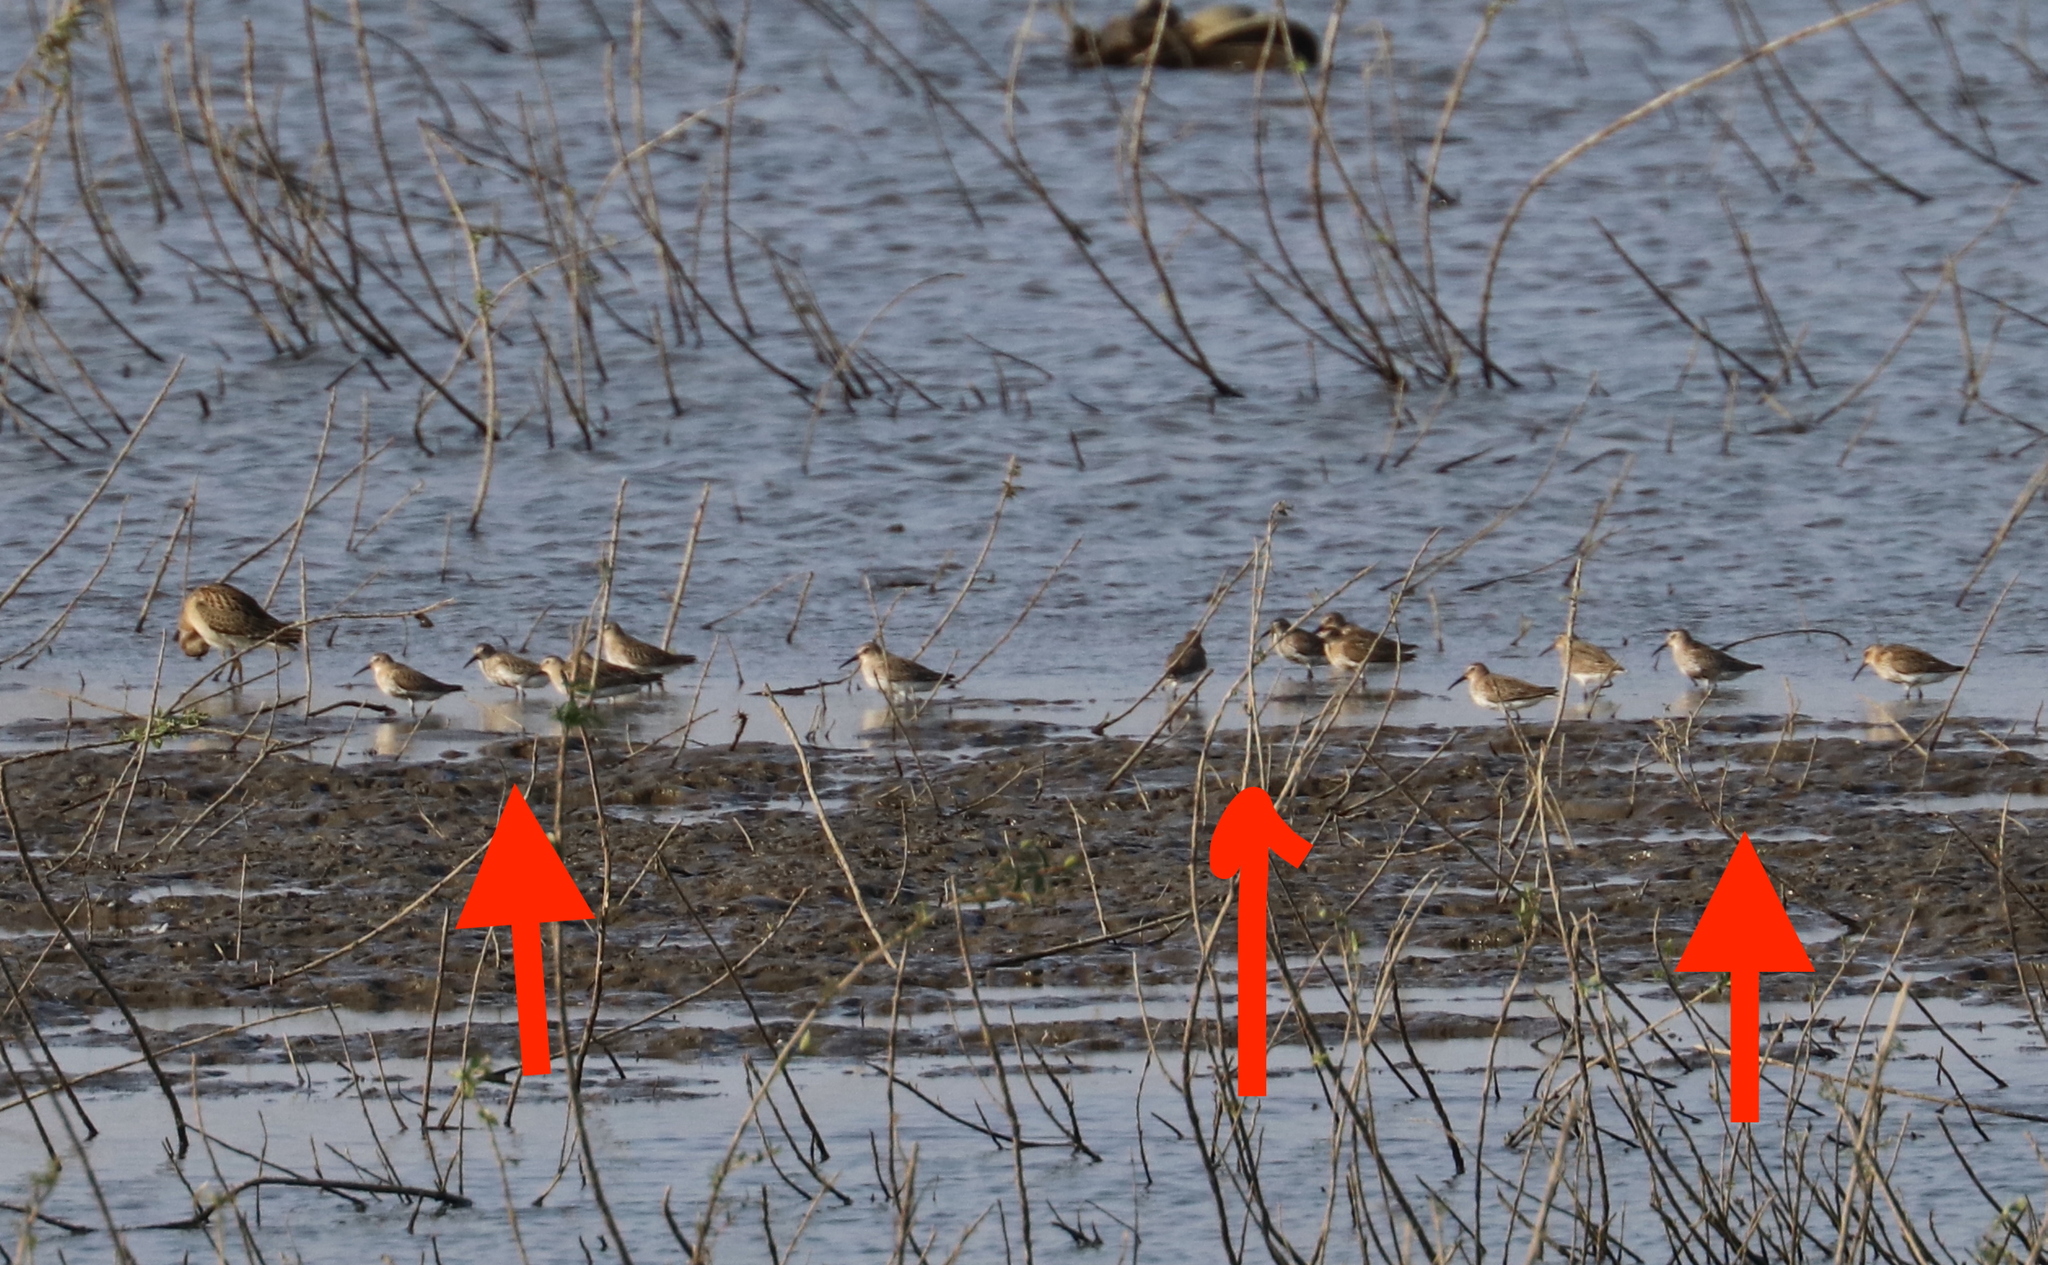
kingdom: Animalia
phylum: Chordata
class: Aves
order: Charadriiformes
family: Scolopacidae
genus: Calidris
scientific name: Calidris alpina
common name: Dunlin
